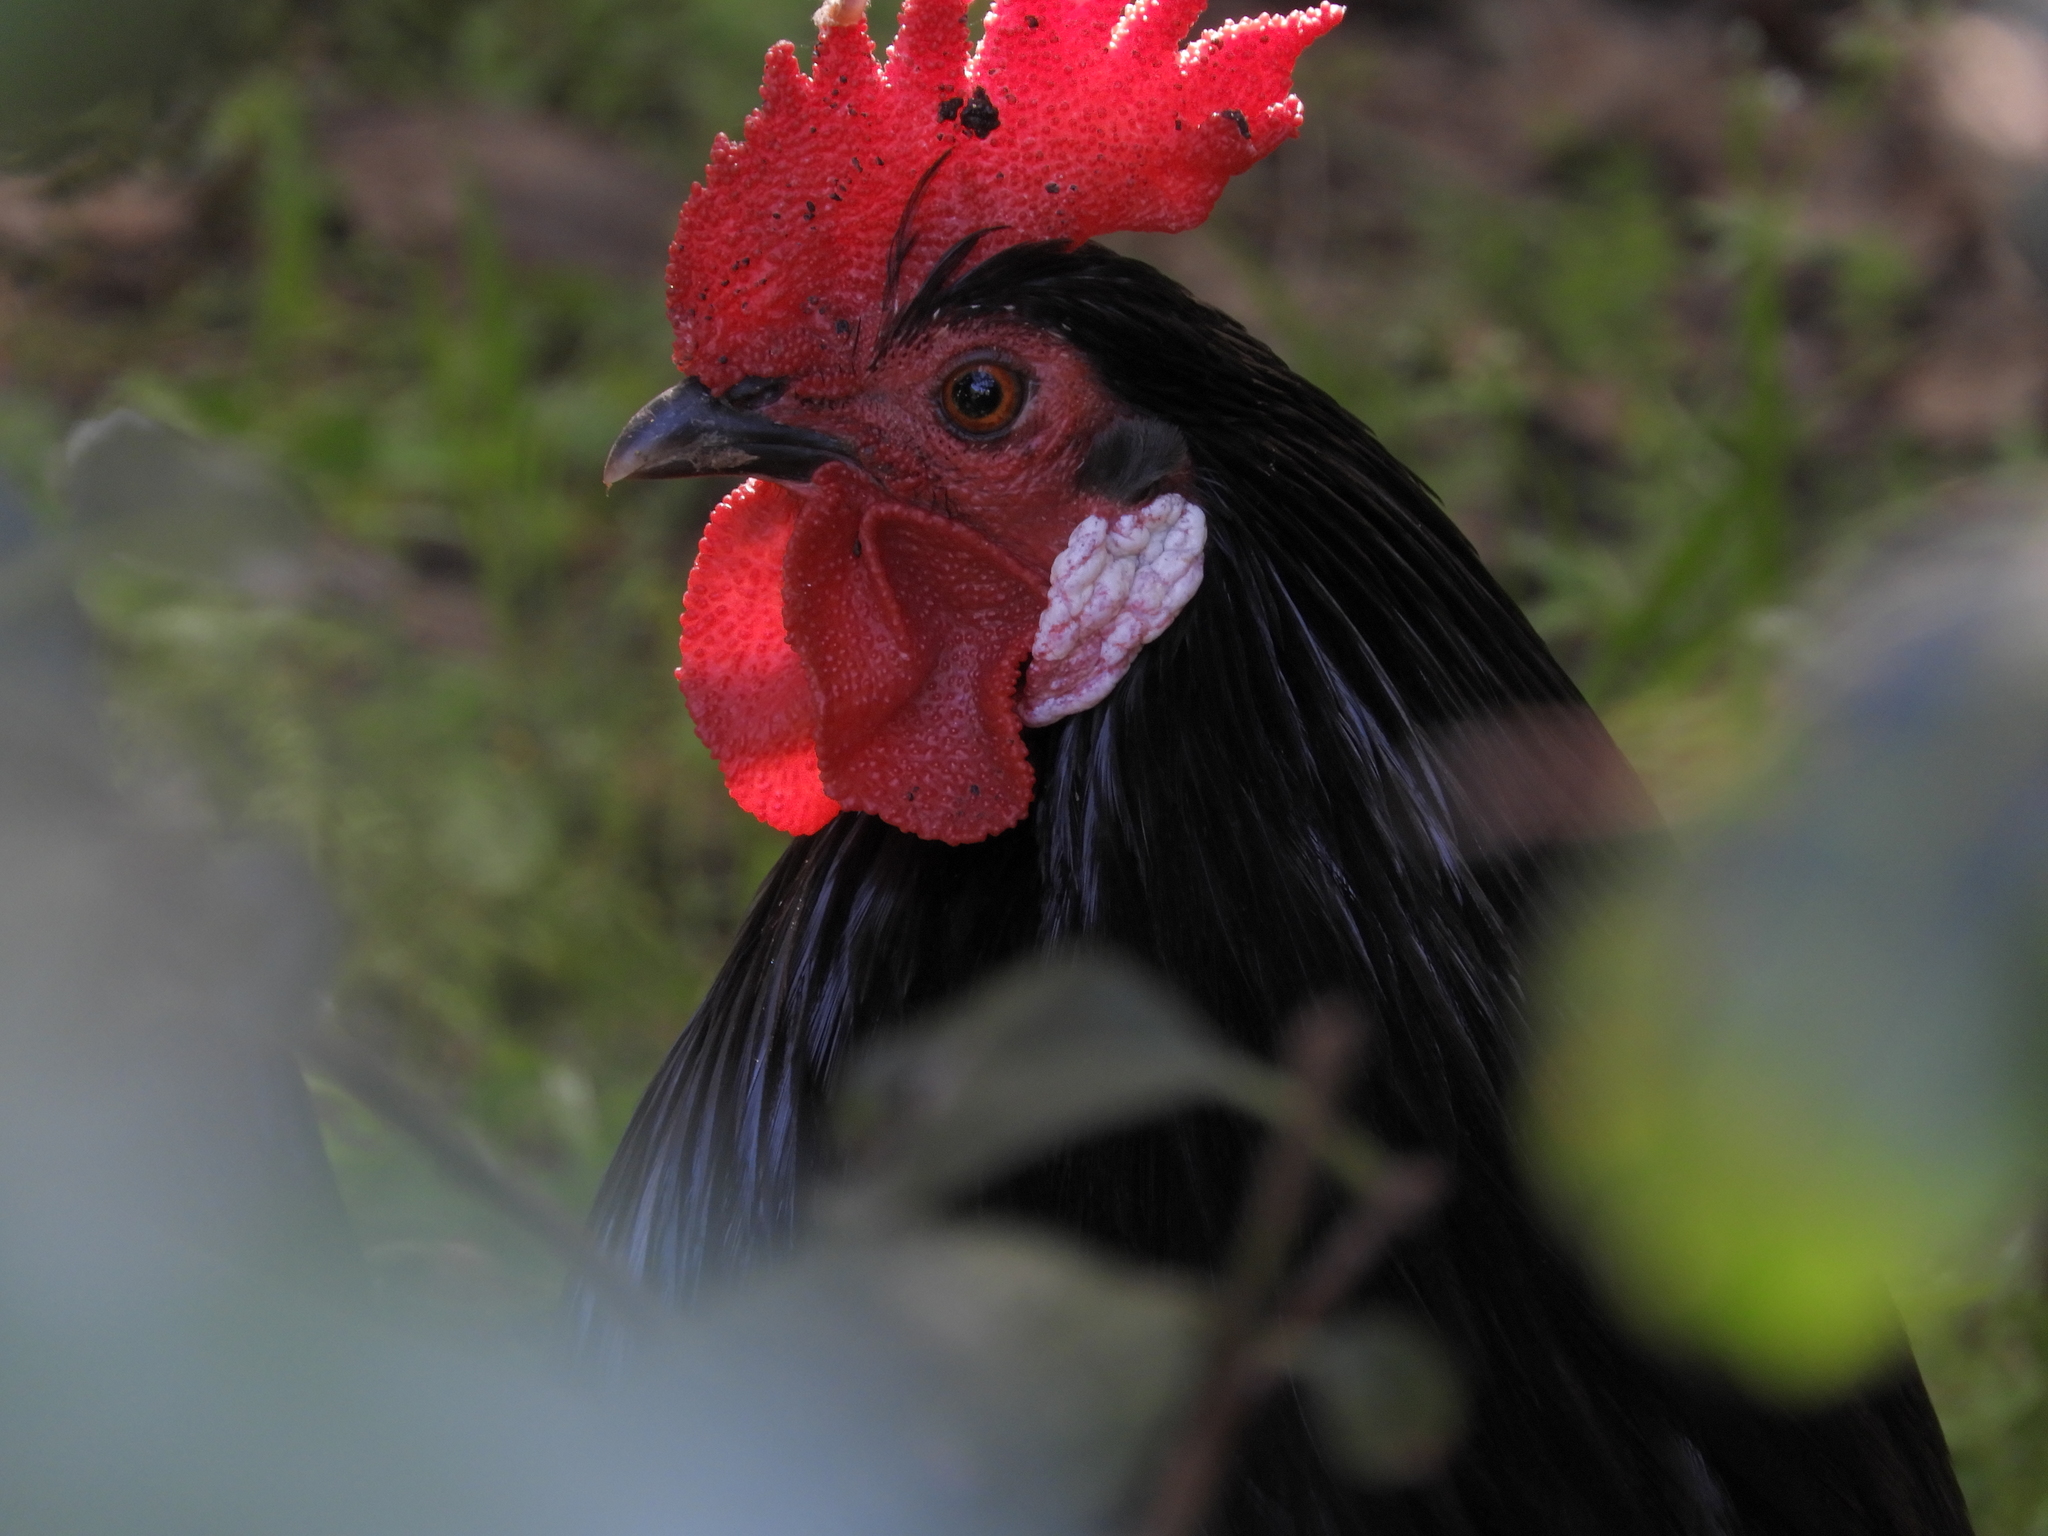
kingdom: Animalia
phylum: Chordata
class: Aves
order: Galliformes
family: Phasianidae
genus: Gallus
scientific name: Gallus gallus
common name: Red junglefowl
